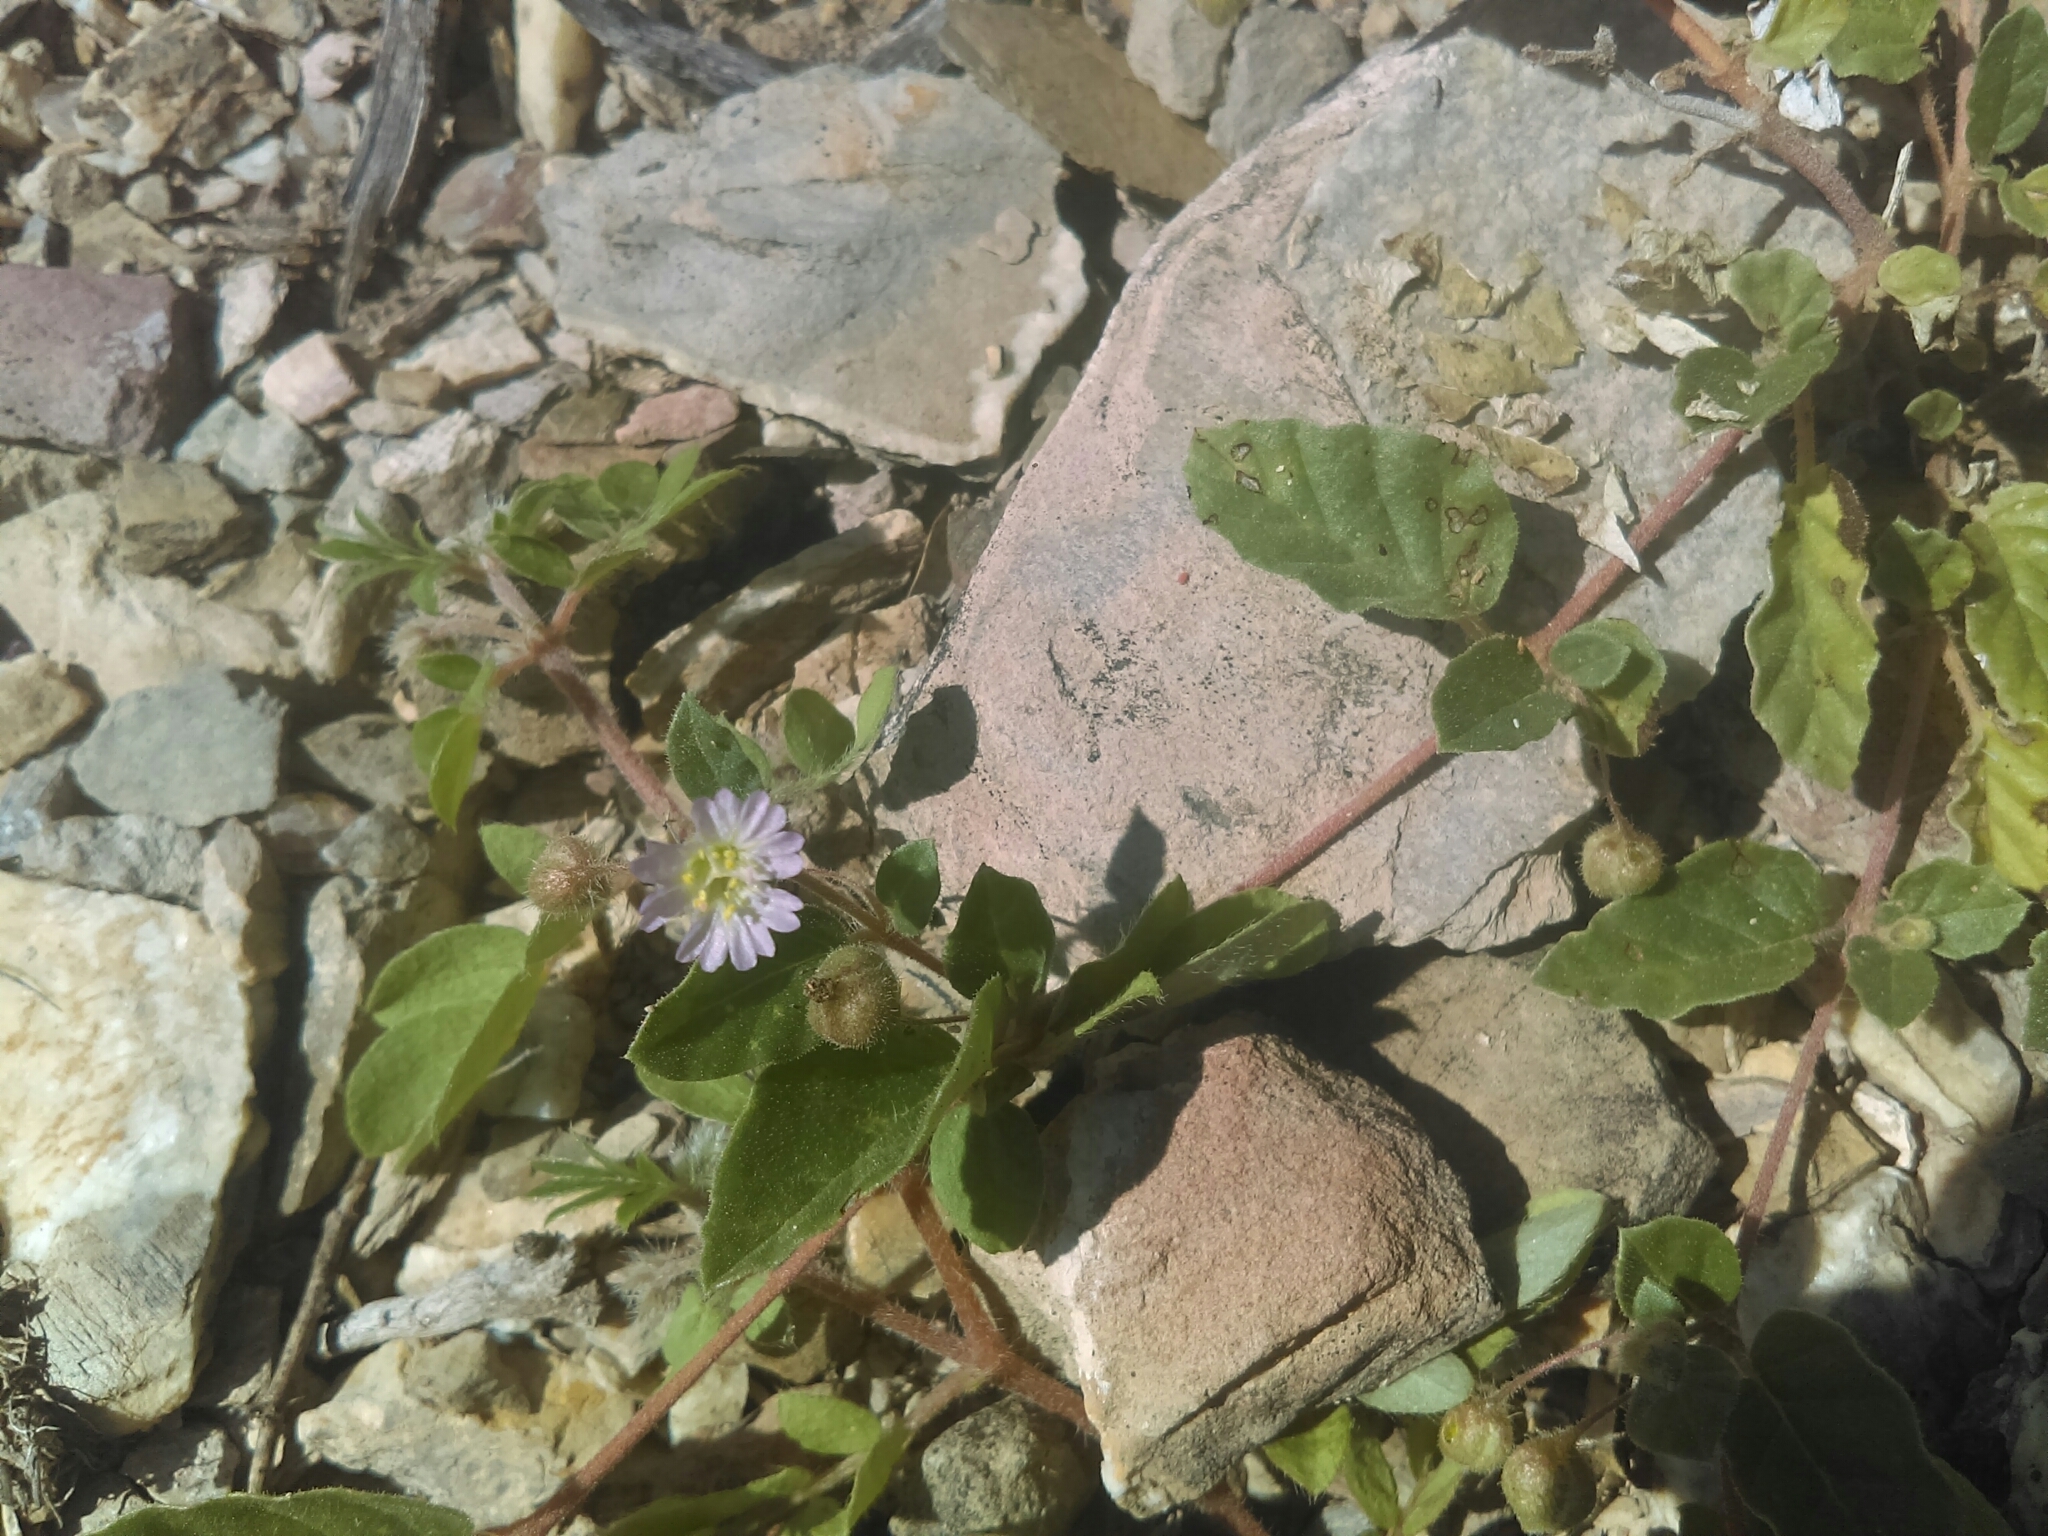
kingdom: Plantae
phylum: Tracheophyta
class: Magnoliopsida
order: Caryophyllales
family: Nyctaginaceae
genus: Allionia
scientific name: Allionia choisyi
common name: Trailing-four-o'clock
